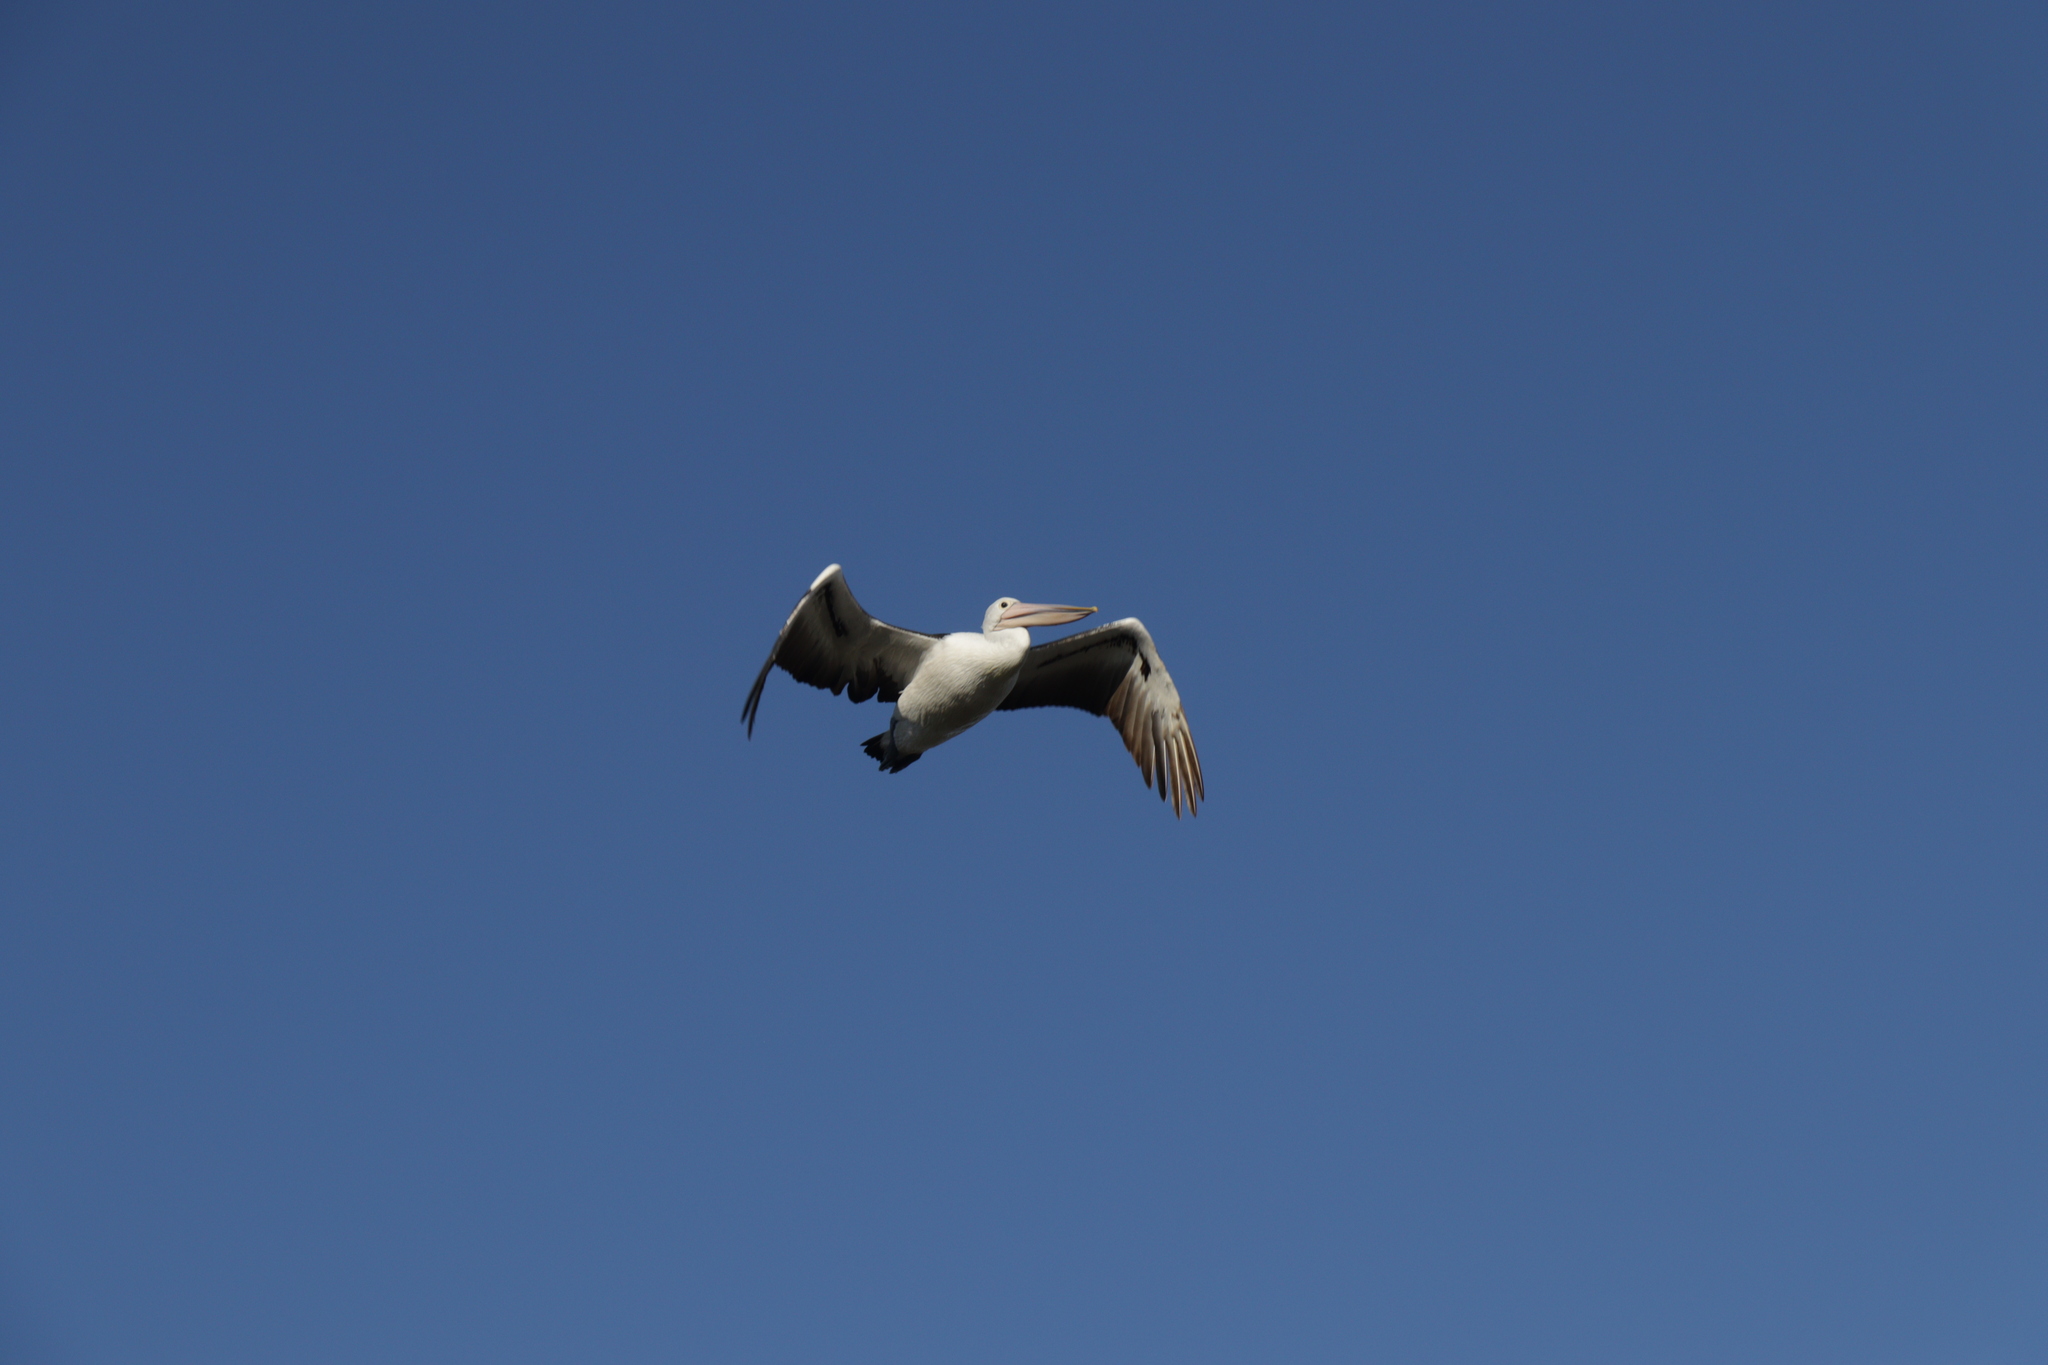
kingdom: Animalia
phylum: Chordata
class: Aves
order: Pelecaniformes
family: Pelecanidae
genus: Pelecanus
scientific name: Pelecanus conspicillatus
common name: Australian pelican
